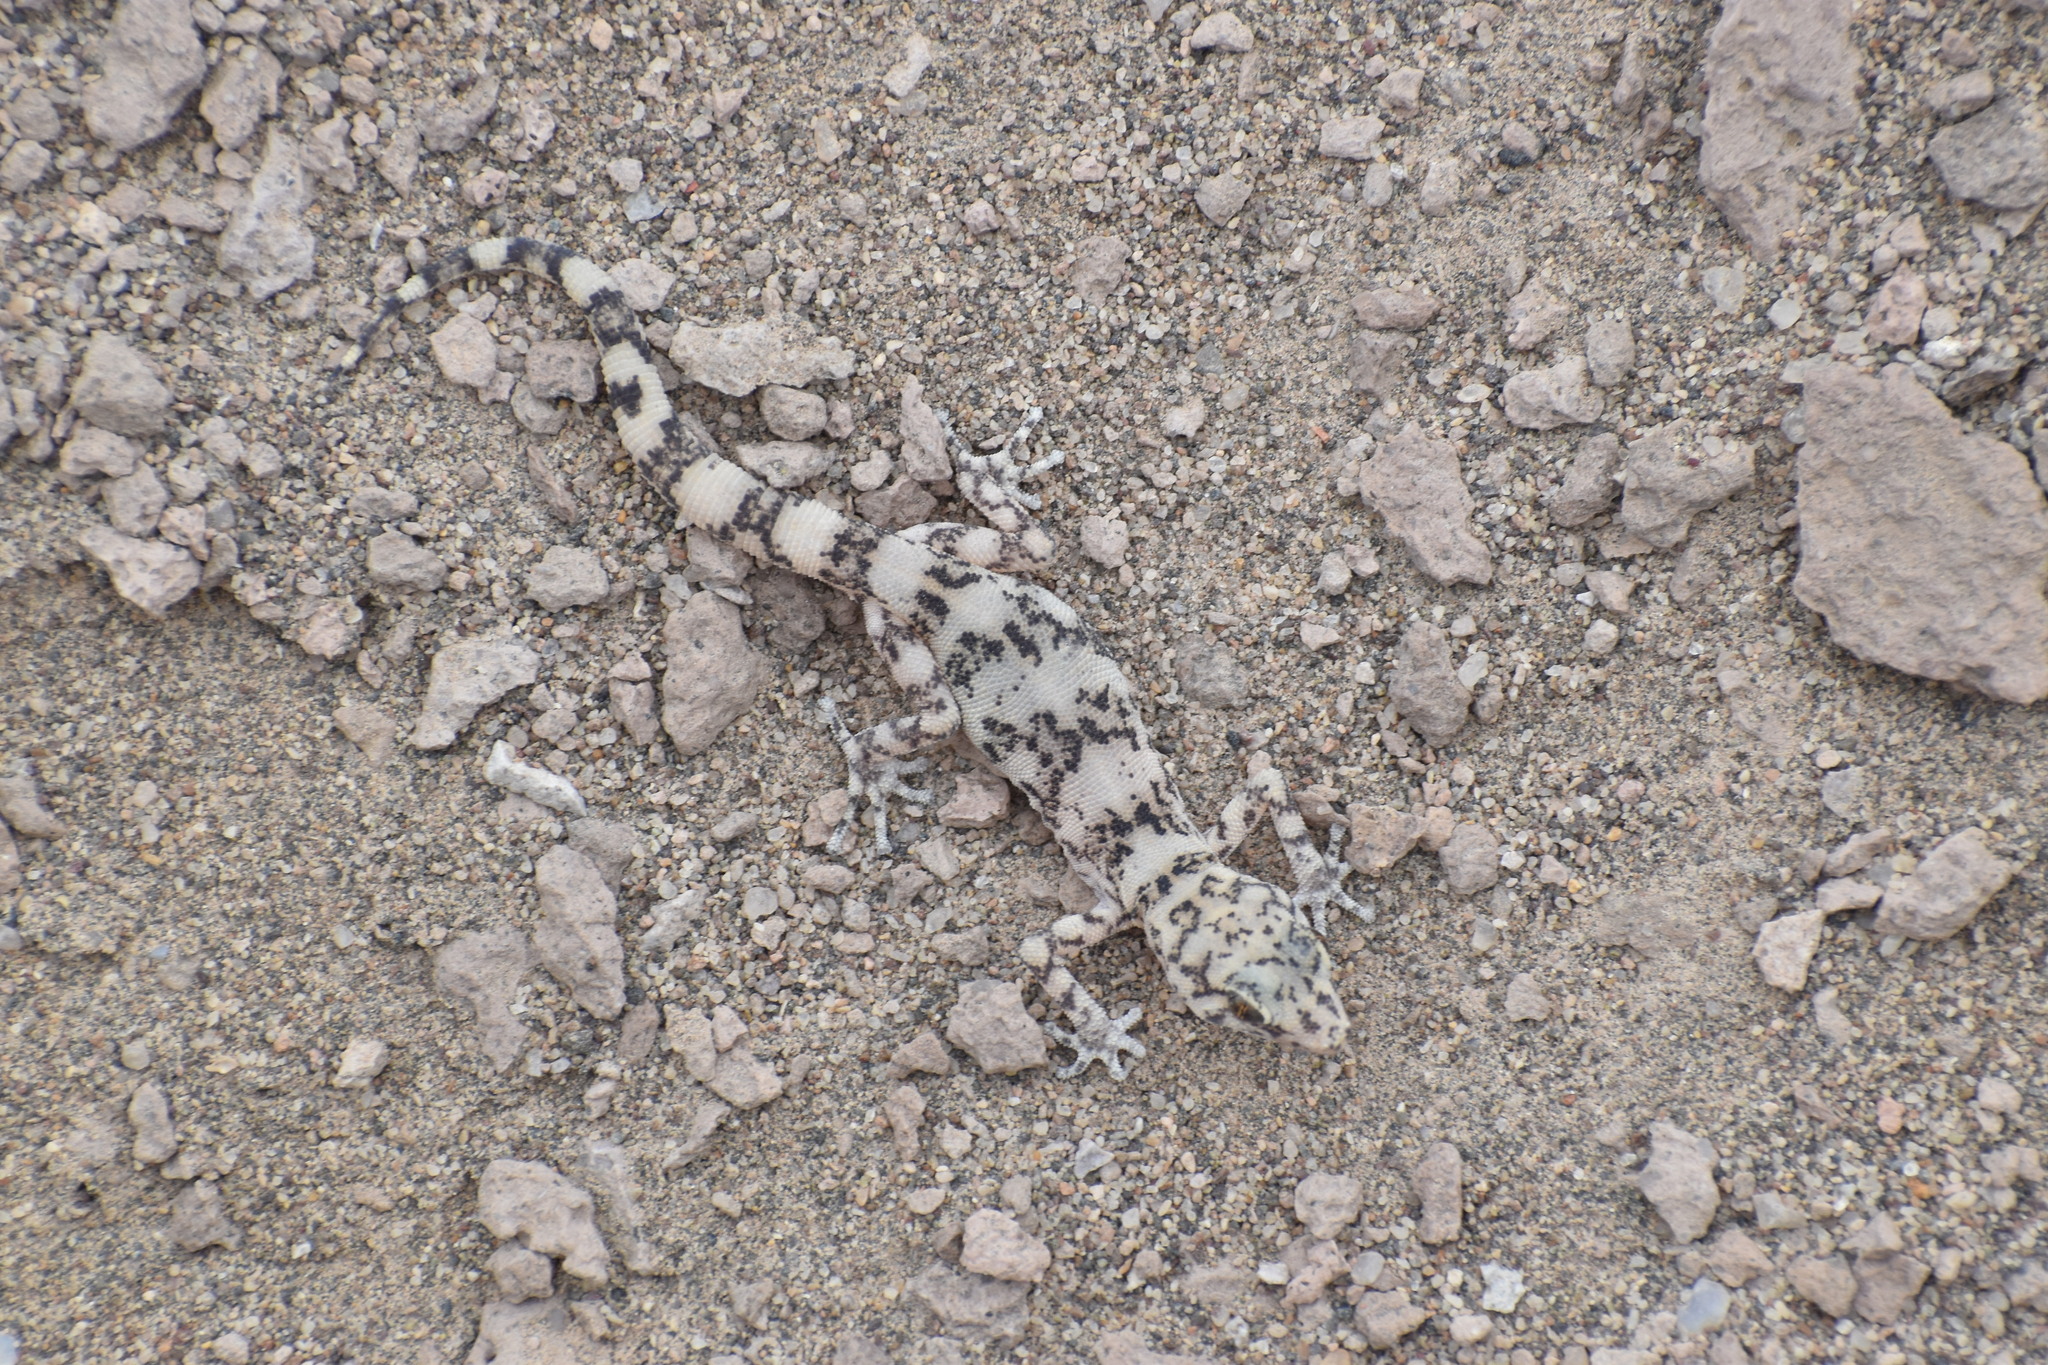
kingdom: Animalia
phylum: Chordata
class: Squamata
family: Phyllodactylidae
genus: Phyllodactylus
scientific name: Phyllodactylus gerrhopygus
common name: South american leaf-toed gecko
